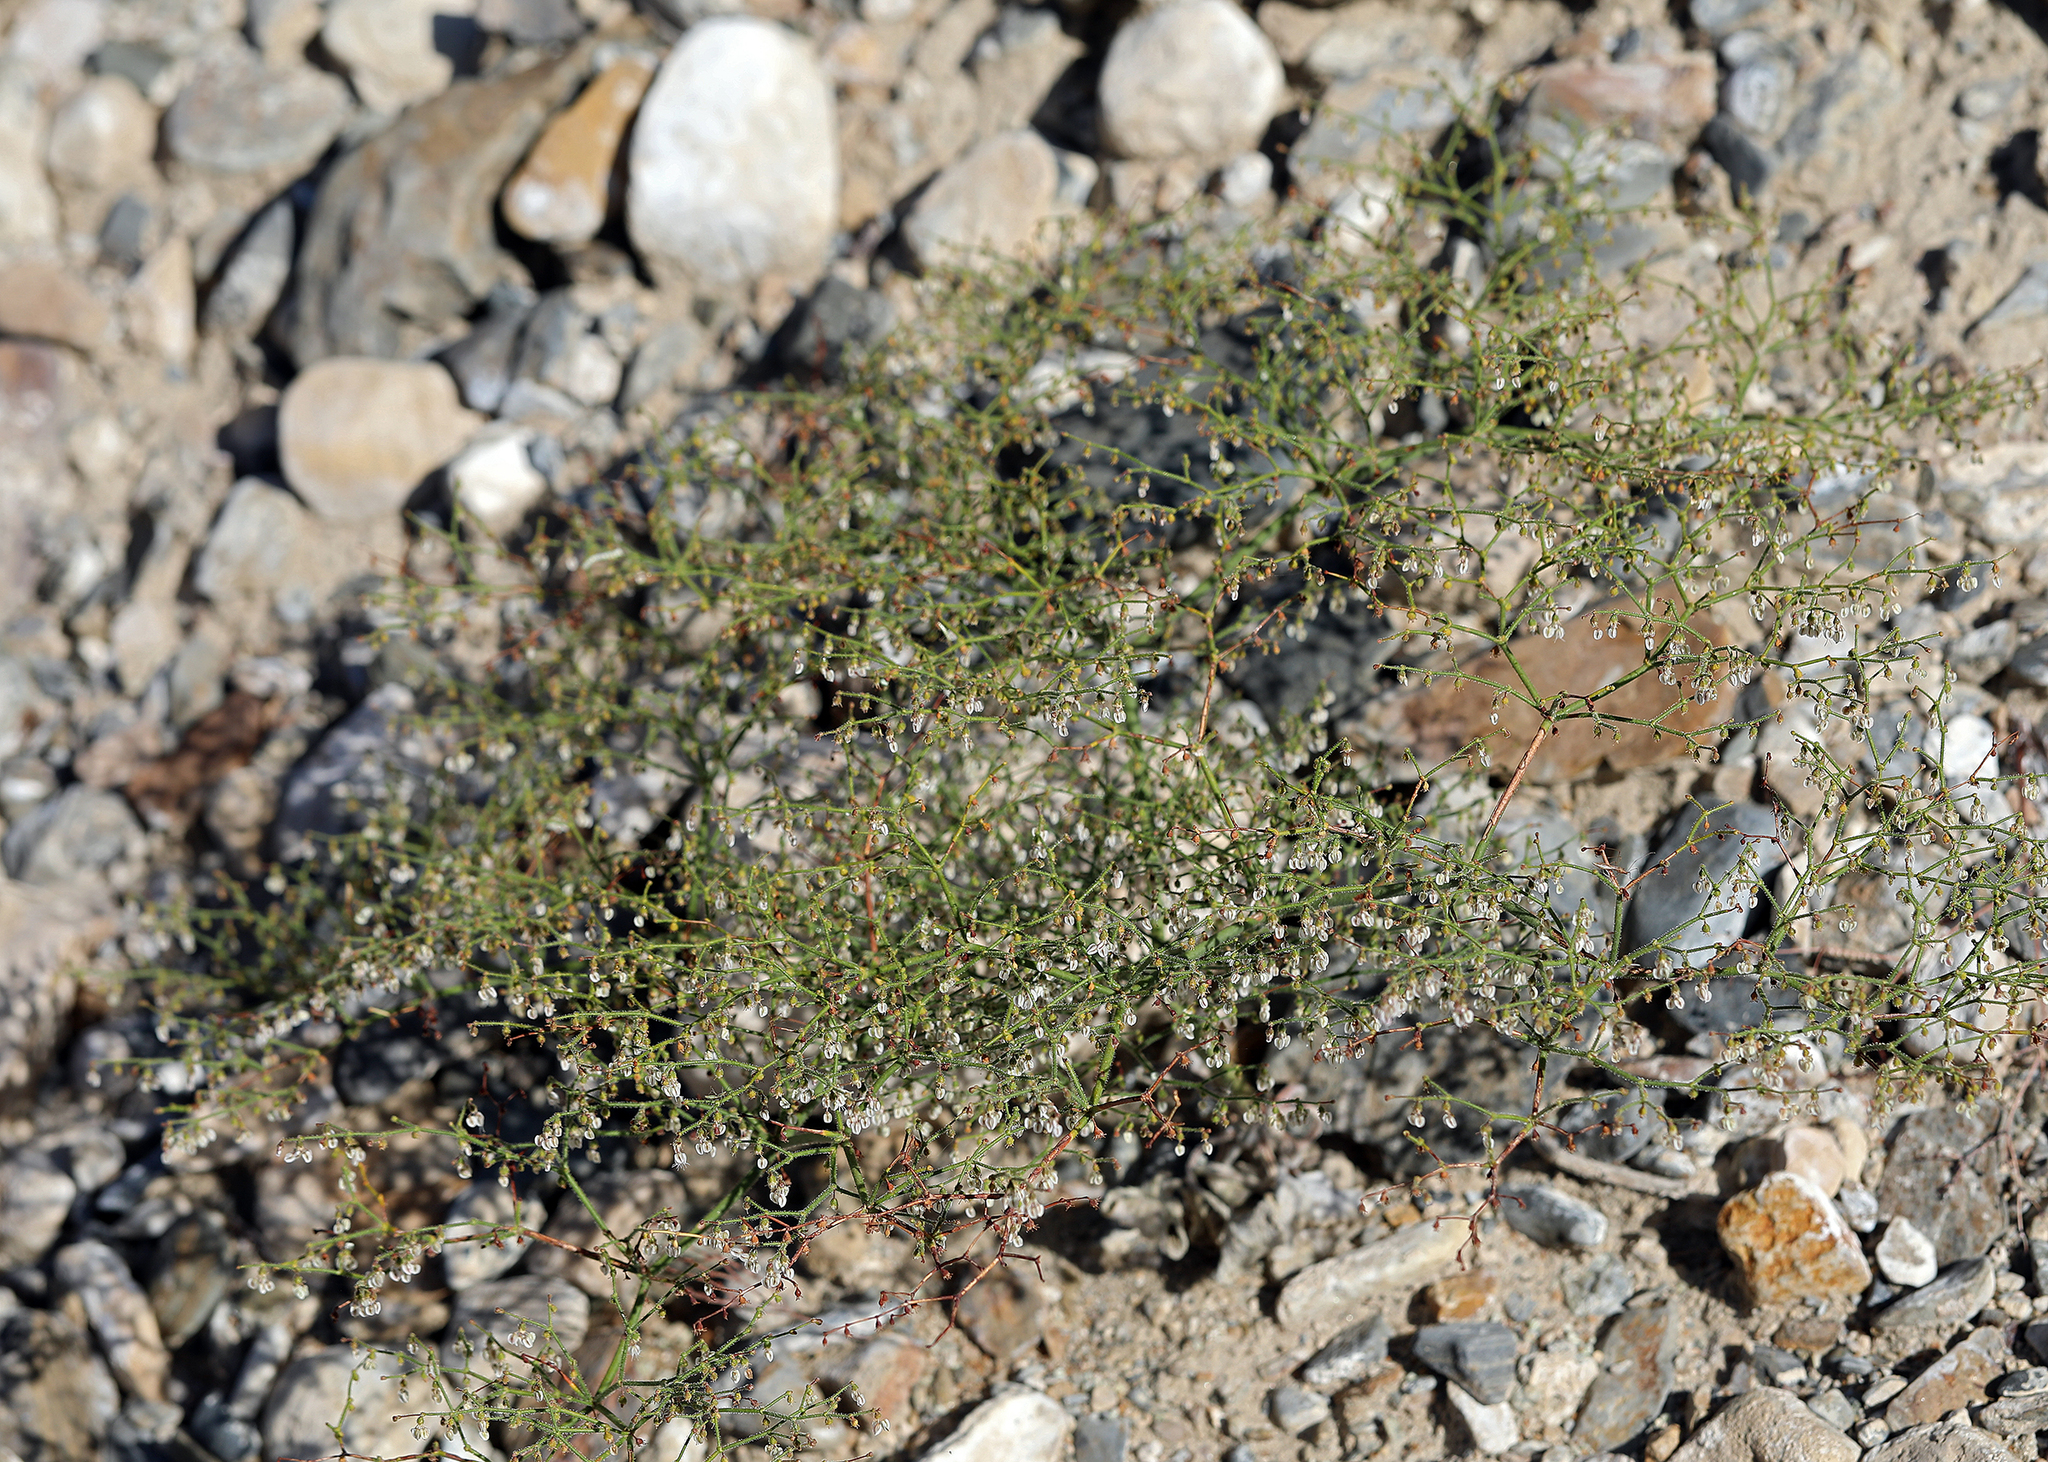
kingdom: Plantae
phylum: Tracheophyta
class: Magnoliopsida
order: Caryophyllales
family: Polygonaceae
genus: Eriogonum
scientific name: Eriogonum brachypodum
